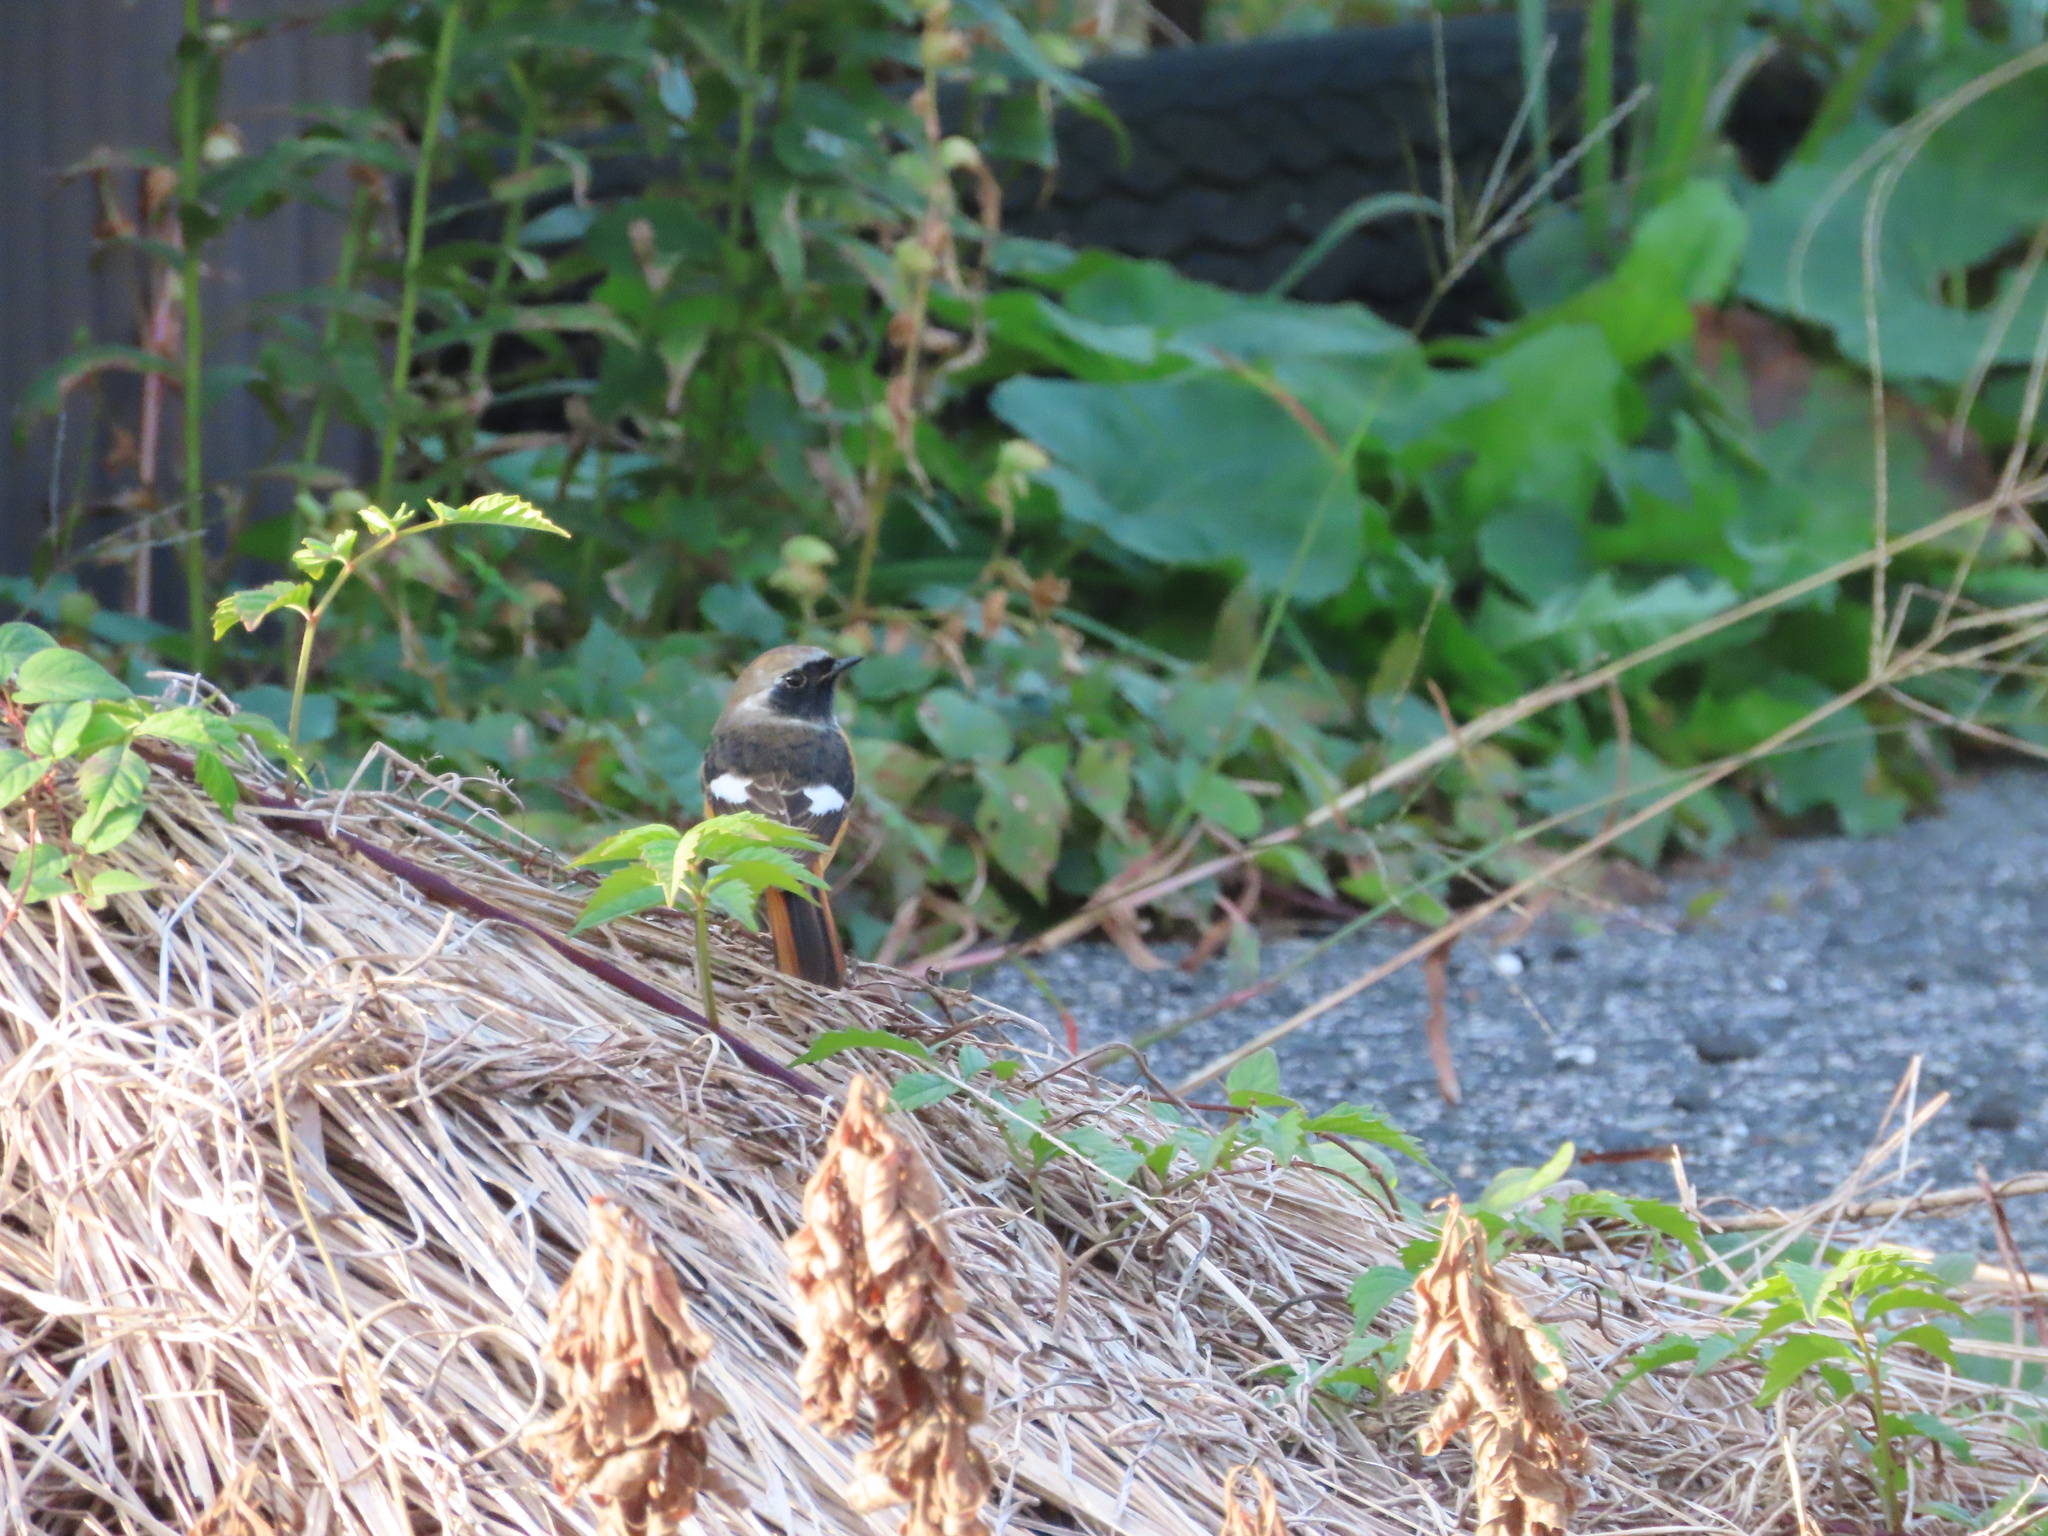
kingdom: Animalia
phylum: Chordata
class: Aves
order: Passeriformes
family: Muscicapidae
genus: Phoenicurus
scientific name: Phoenicurus auroreus
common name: Daurian redstart
